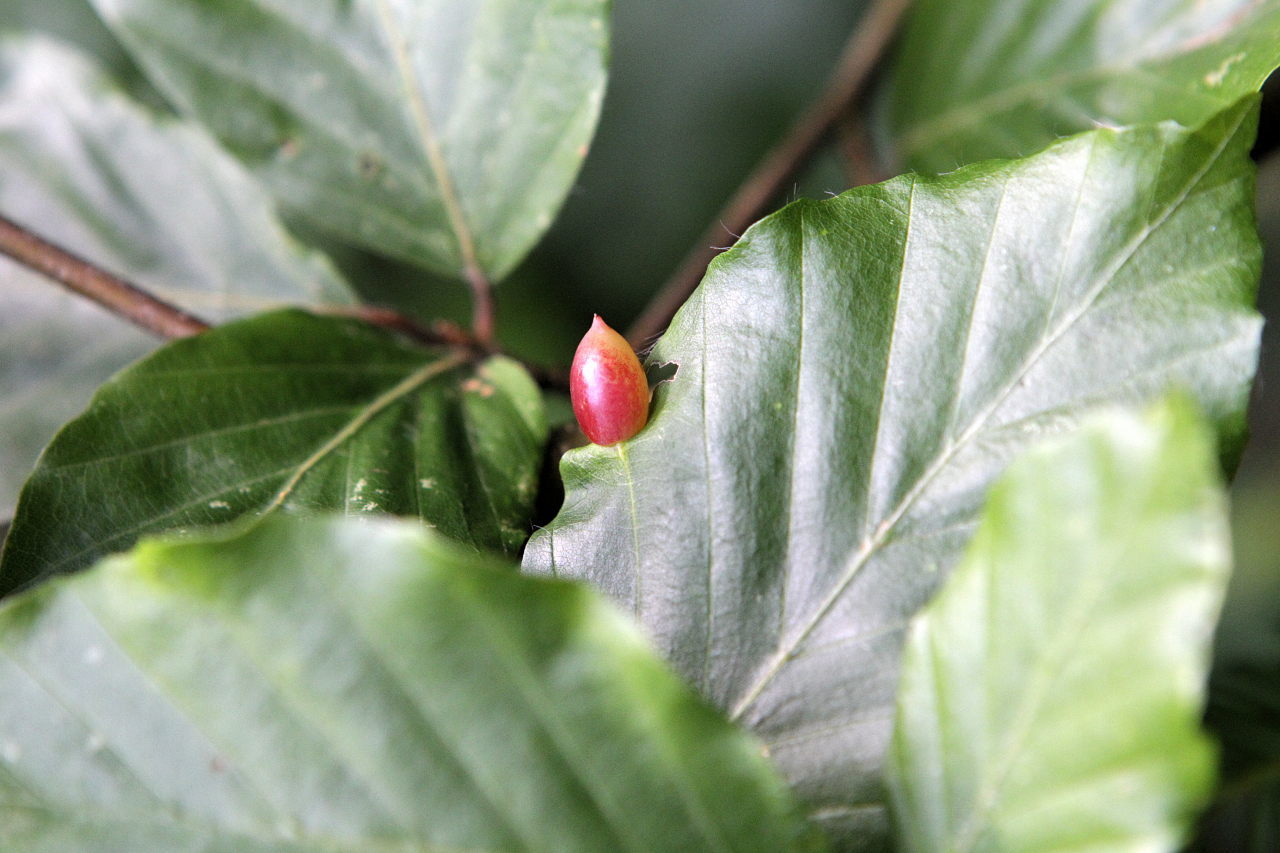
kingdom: Animalia
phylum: Arthropoda
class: Insecta
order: Diptera
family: Cecidomyiidae
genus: Mikiola
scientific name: Mikiola fagi
